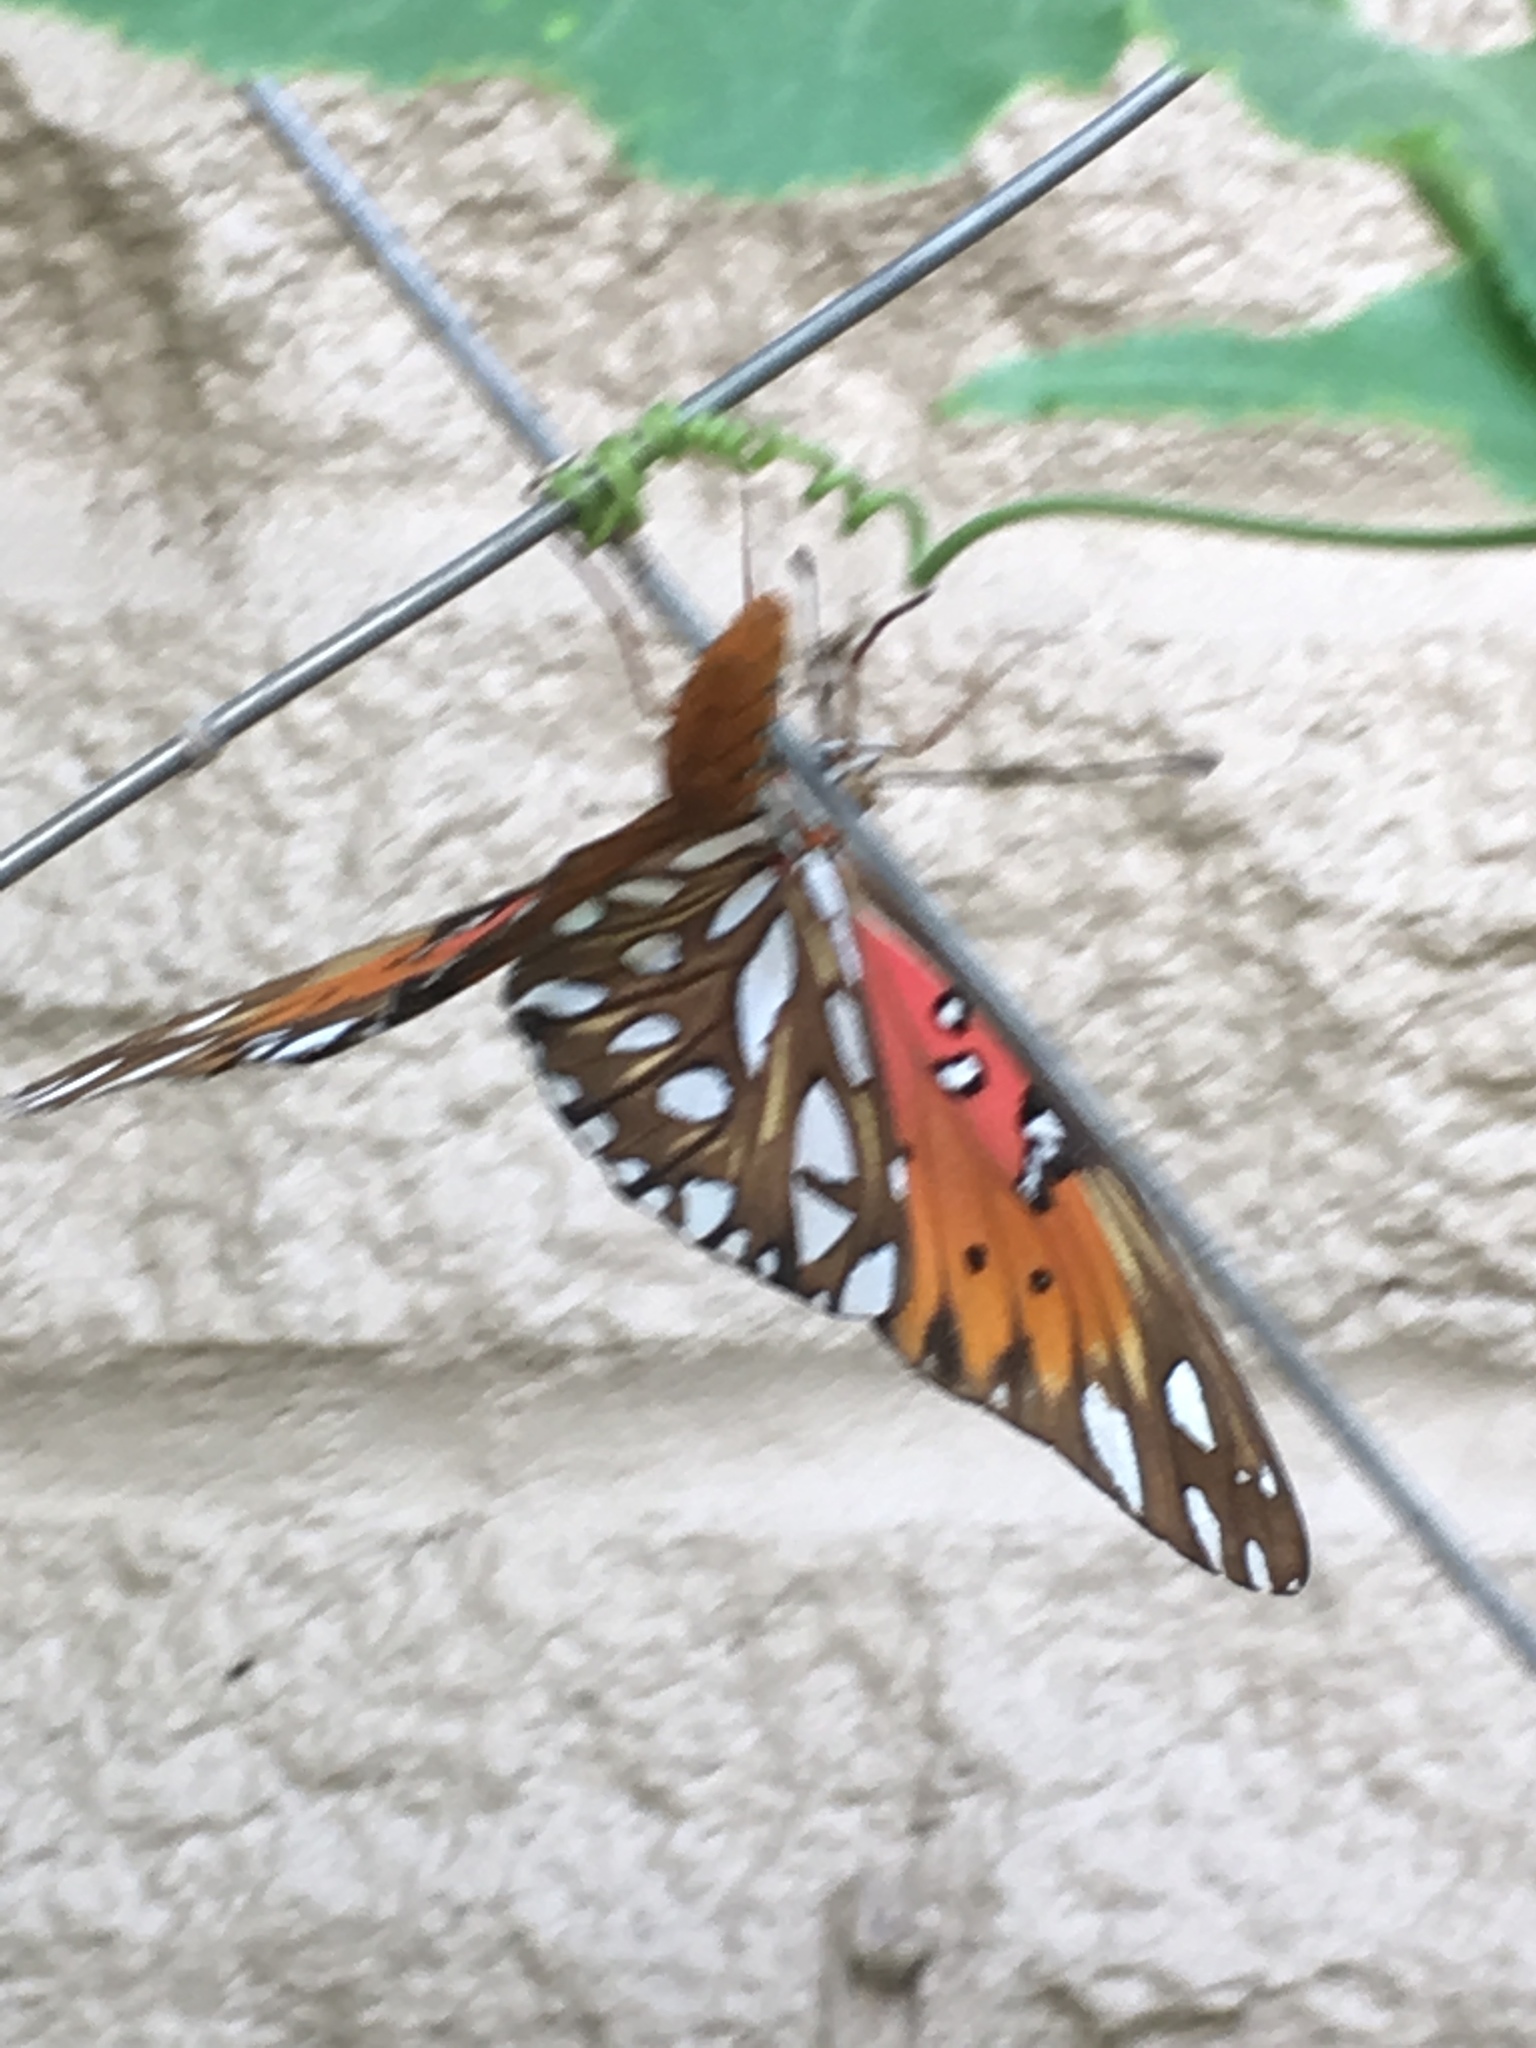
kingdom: Animalia
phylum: Arthropoda
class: Insecta
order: Lepidoptera
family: Nymphalidae
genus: Dione
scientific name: Dione vanillae
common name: Gulf fritillary
